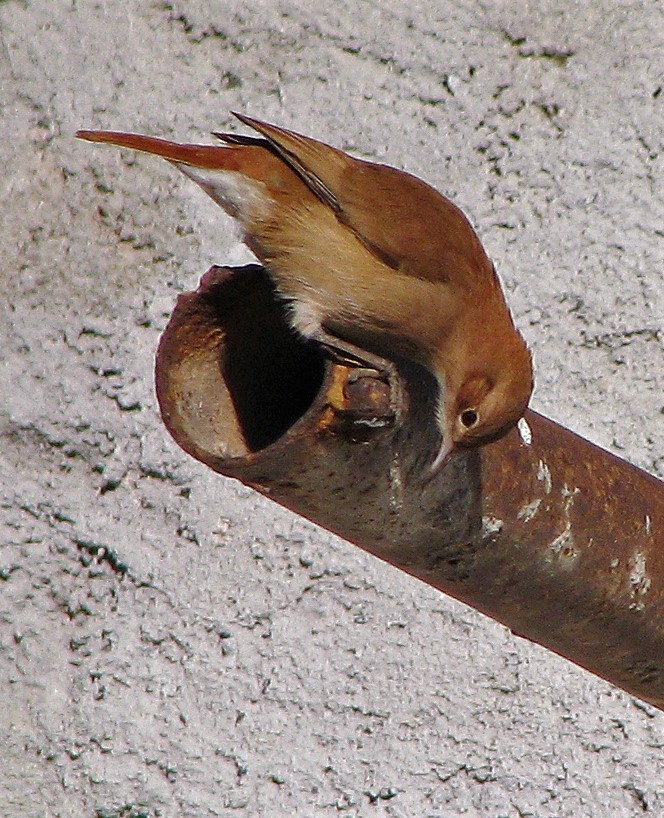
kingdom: Animalia
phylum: Chordata
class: Aves
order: Passeriformes
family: Furnariidae
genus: Furnarius
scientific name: Furnarius rufus
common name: Rufous hornero
